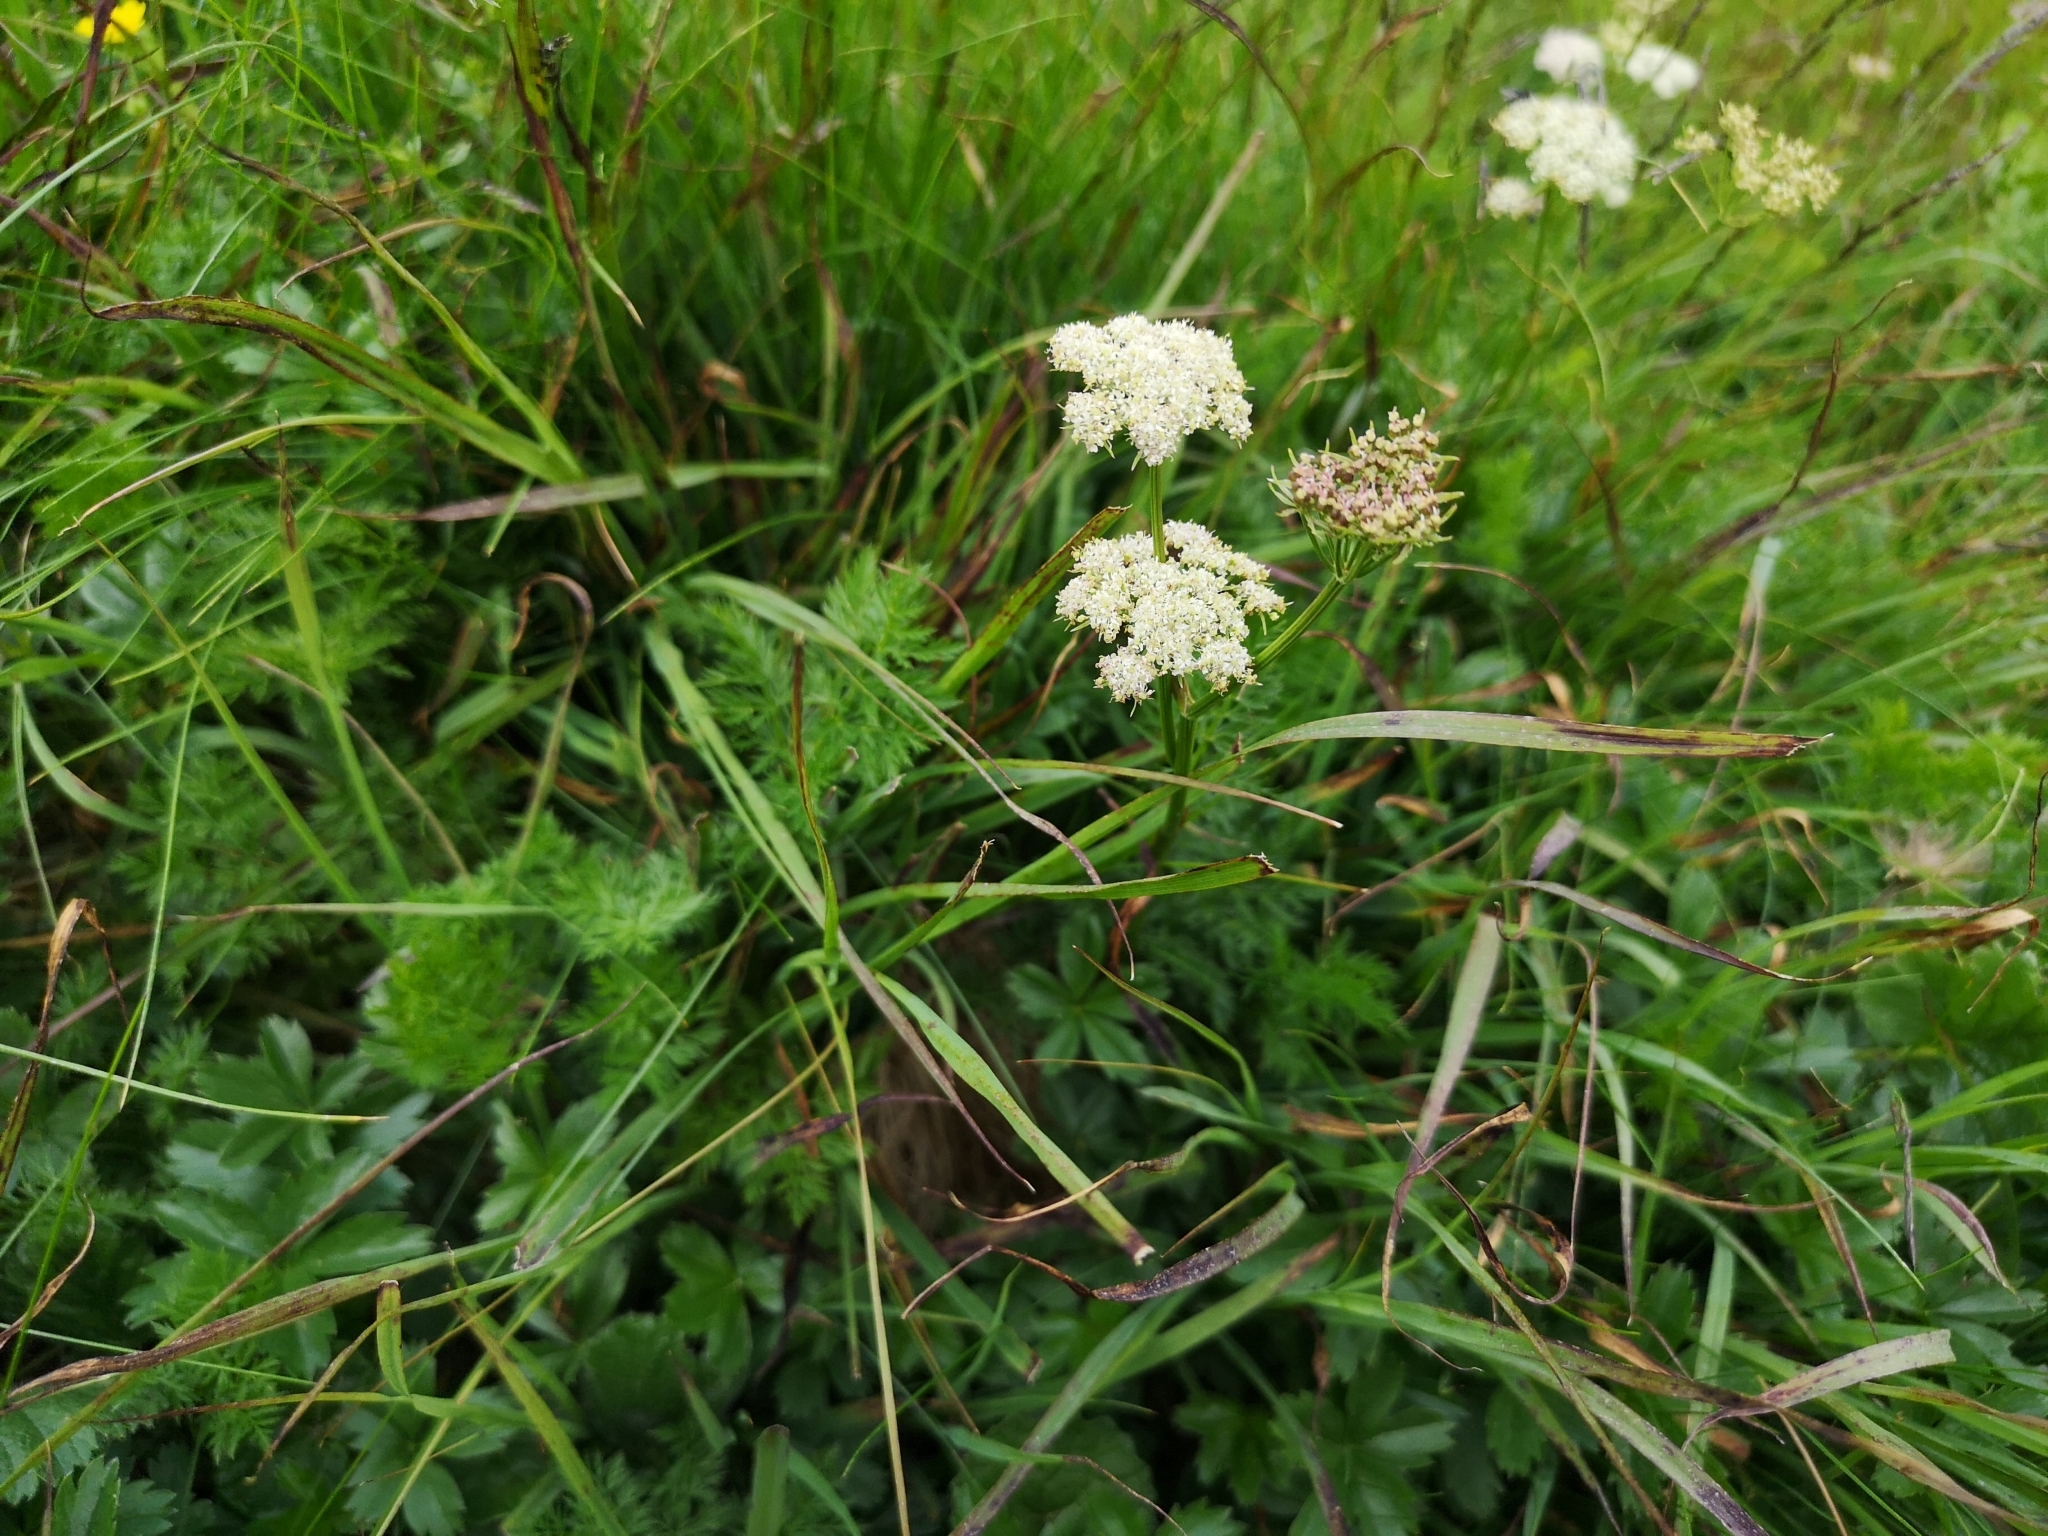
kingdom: Plantae
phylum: Tracheophyta
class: Magnoliopsida
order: Apiales
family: Apiaceae
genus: Pachypleurum
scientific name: Pachypleurum mutellinoides
